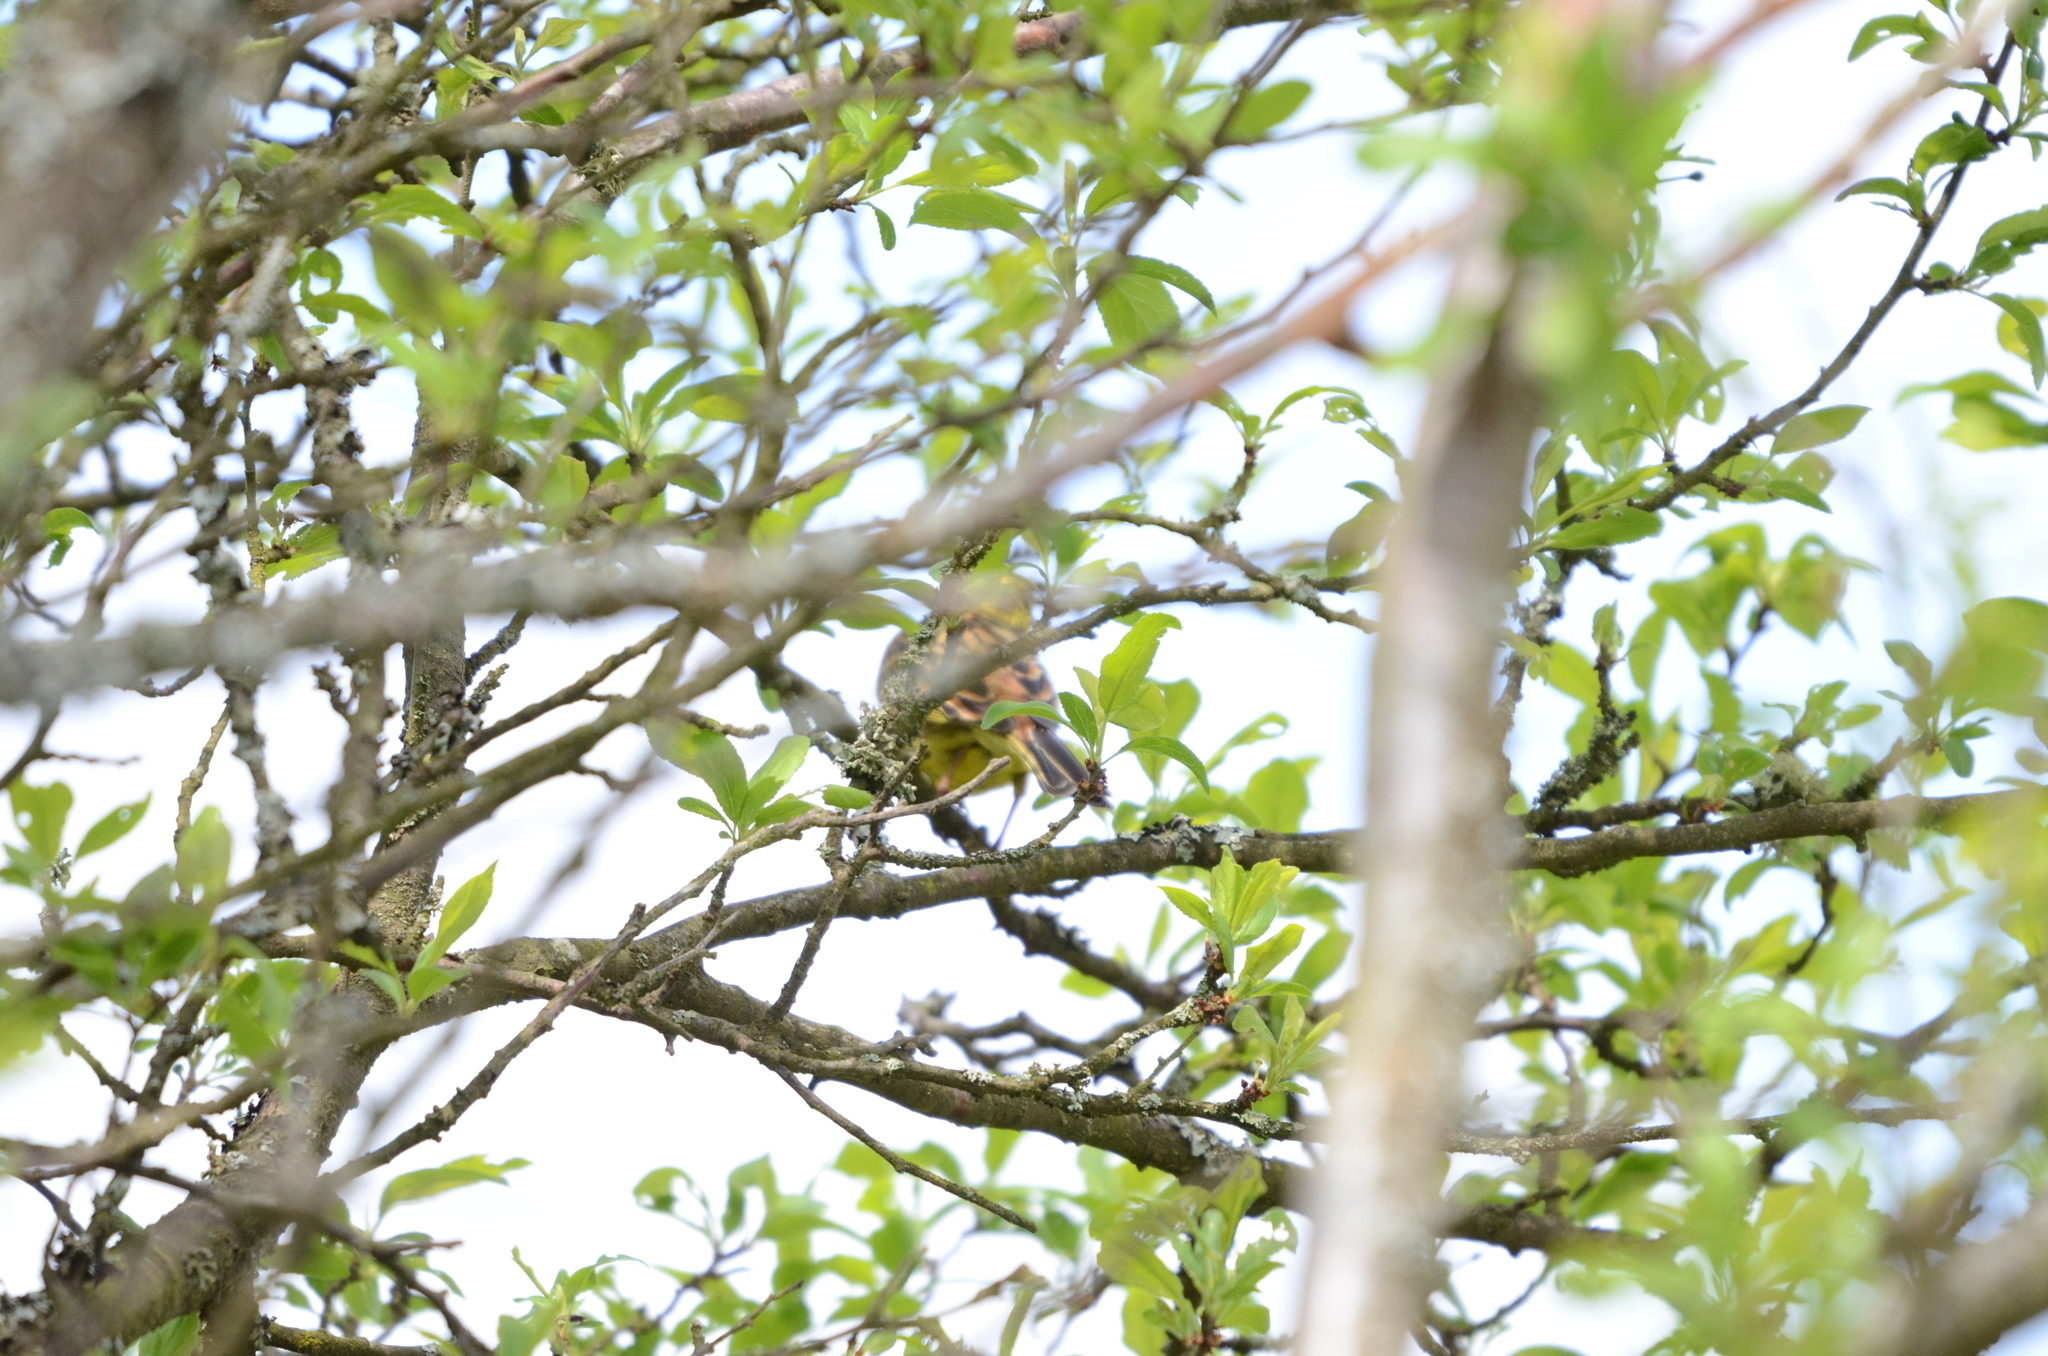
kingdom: Animalia
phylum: Chordata
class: Aves
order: Passeriformes
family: Emberizidae
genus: Emberiza
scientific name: Emberiza citrinella
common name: Yellowhammer
